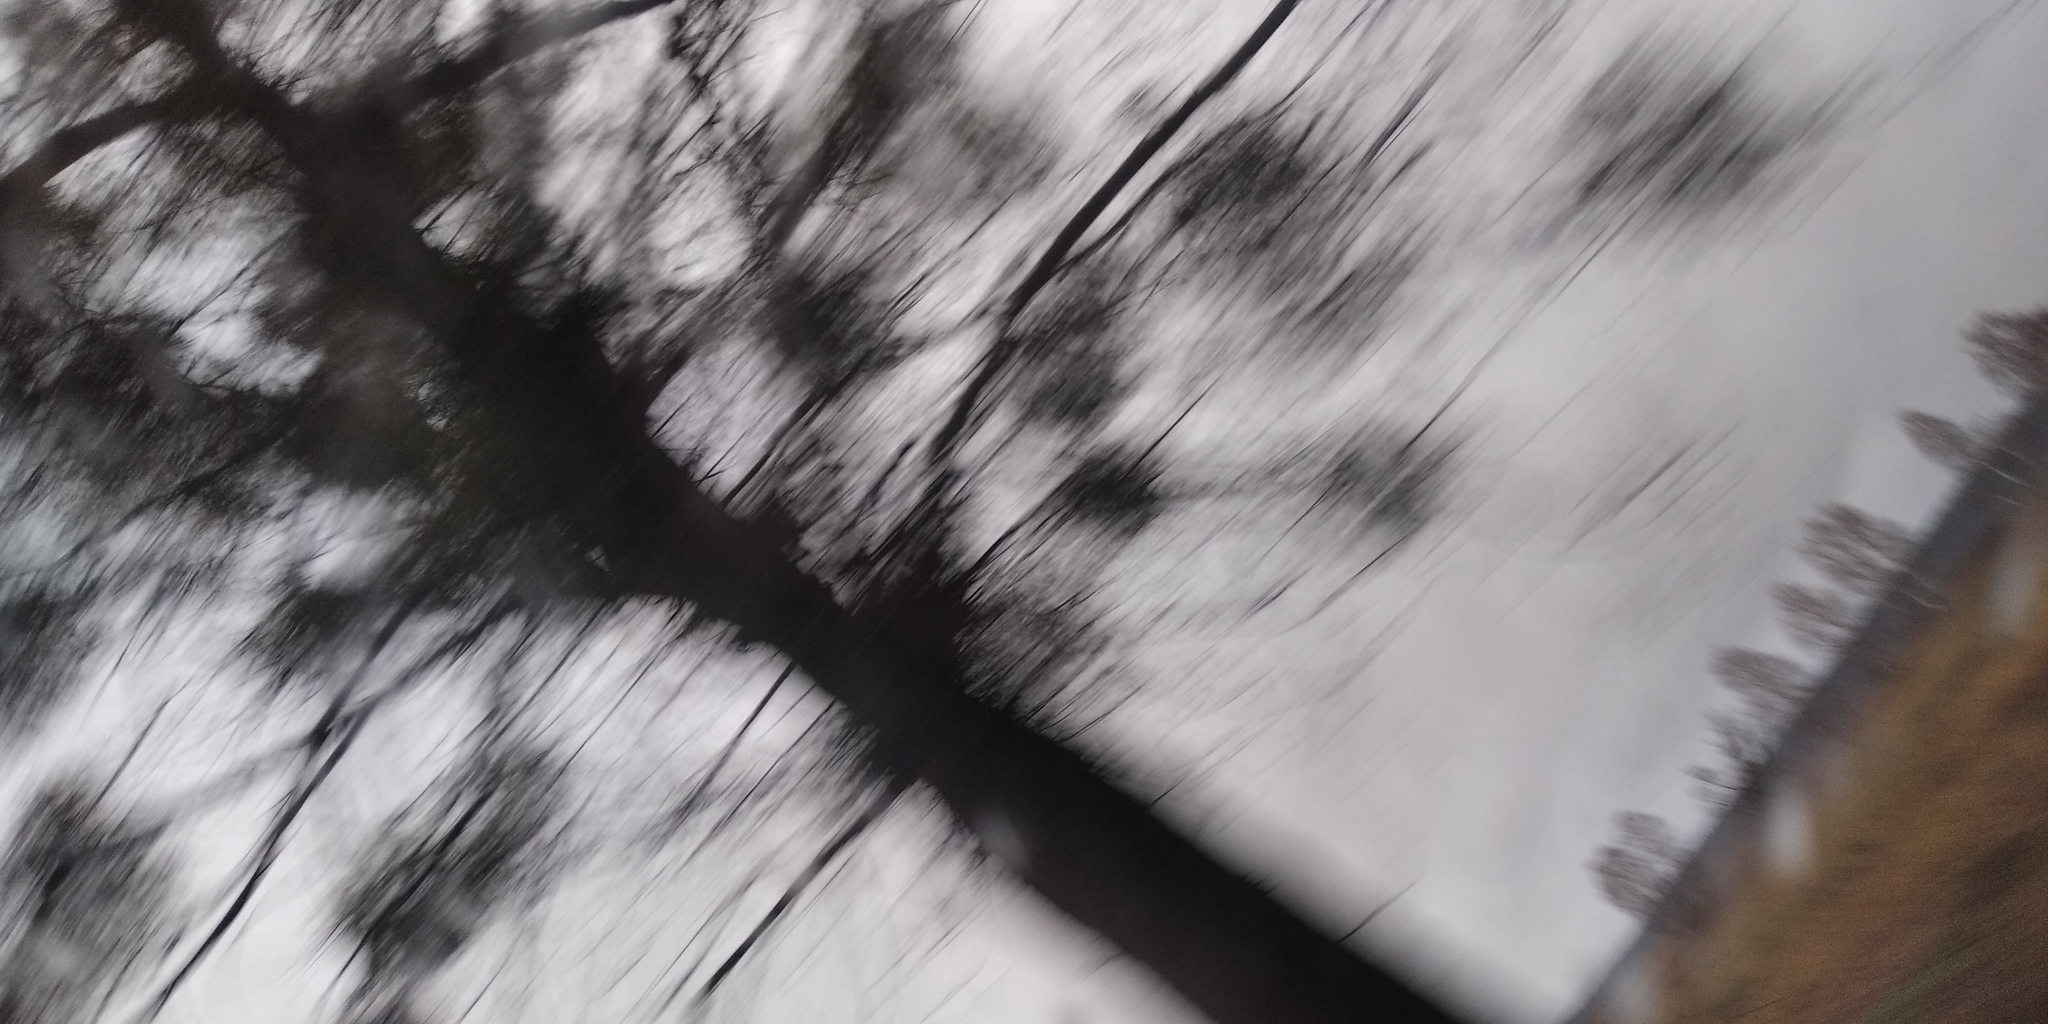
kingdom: Plantae
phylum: Tracheophyta
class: Magnoliopsida
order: Santalales
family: Viscaceae
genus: Viscum
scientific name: Viscum album
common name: Mistletoe
